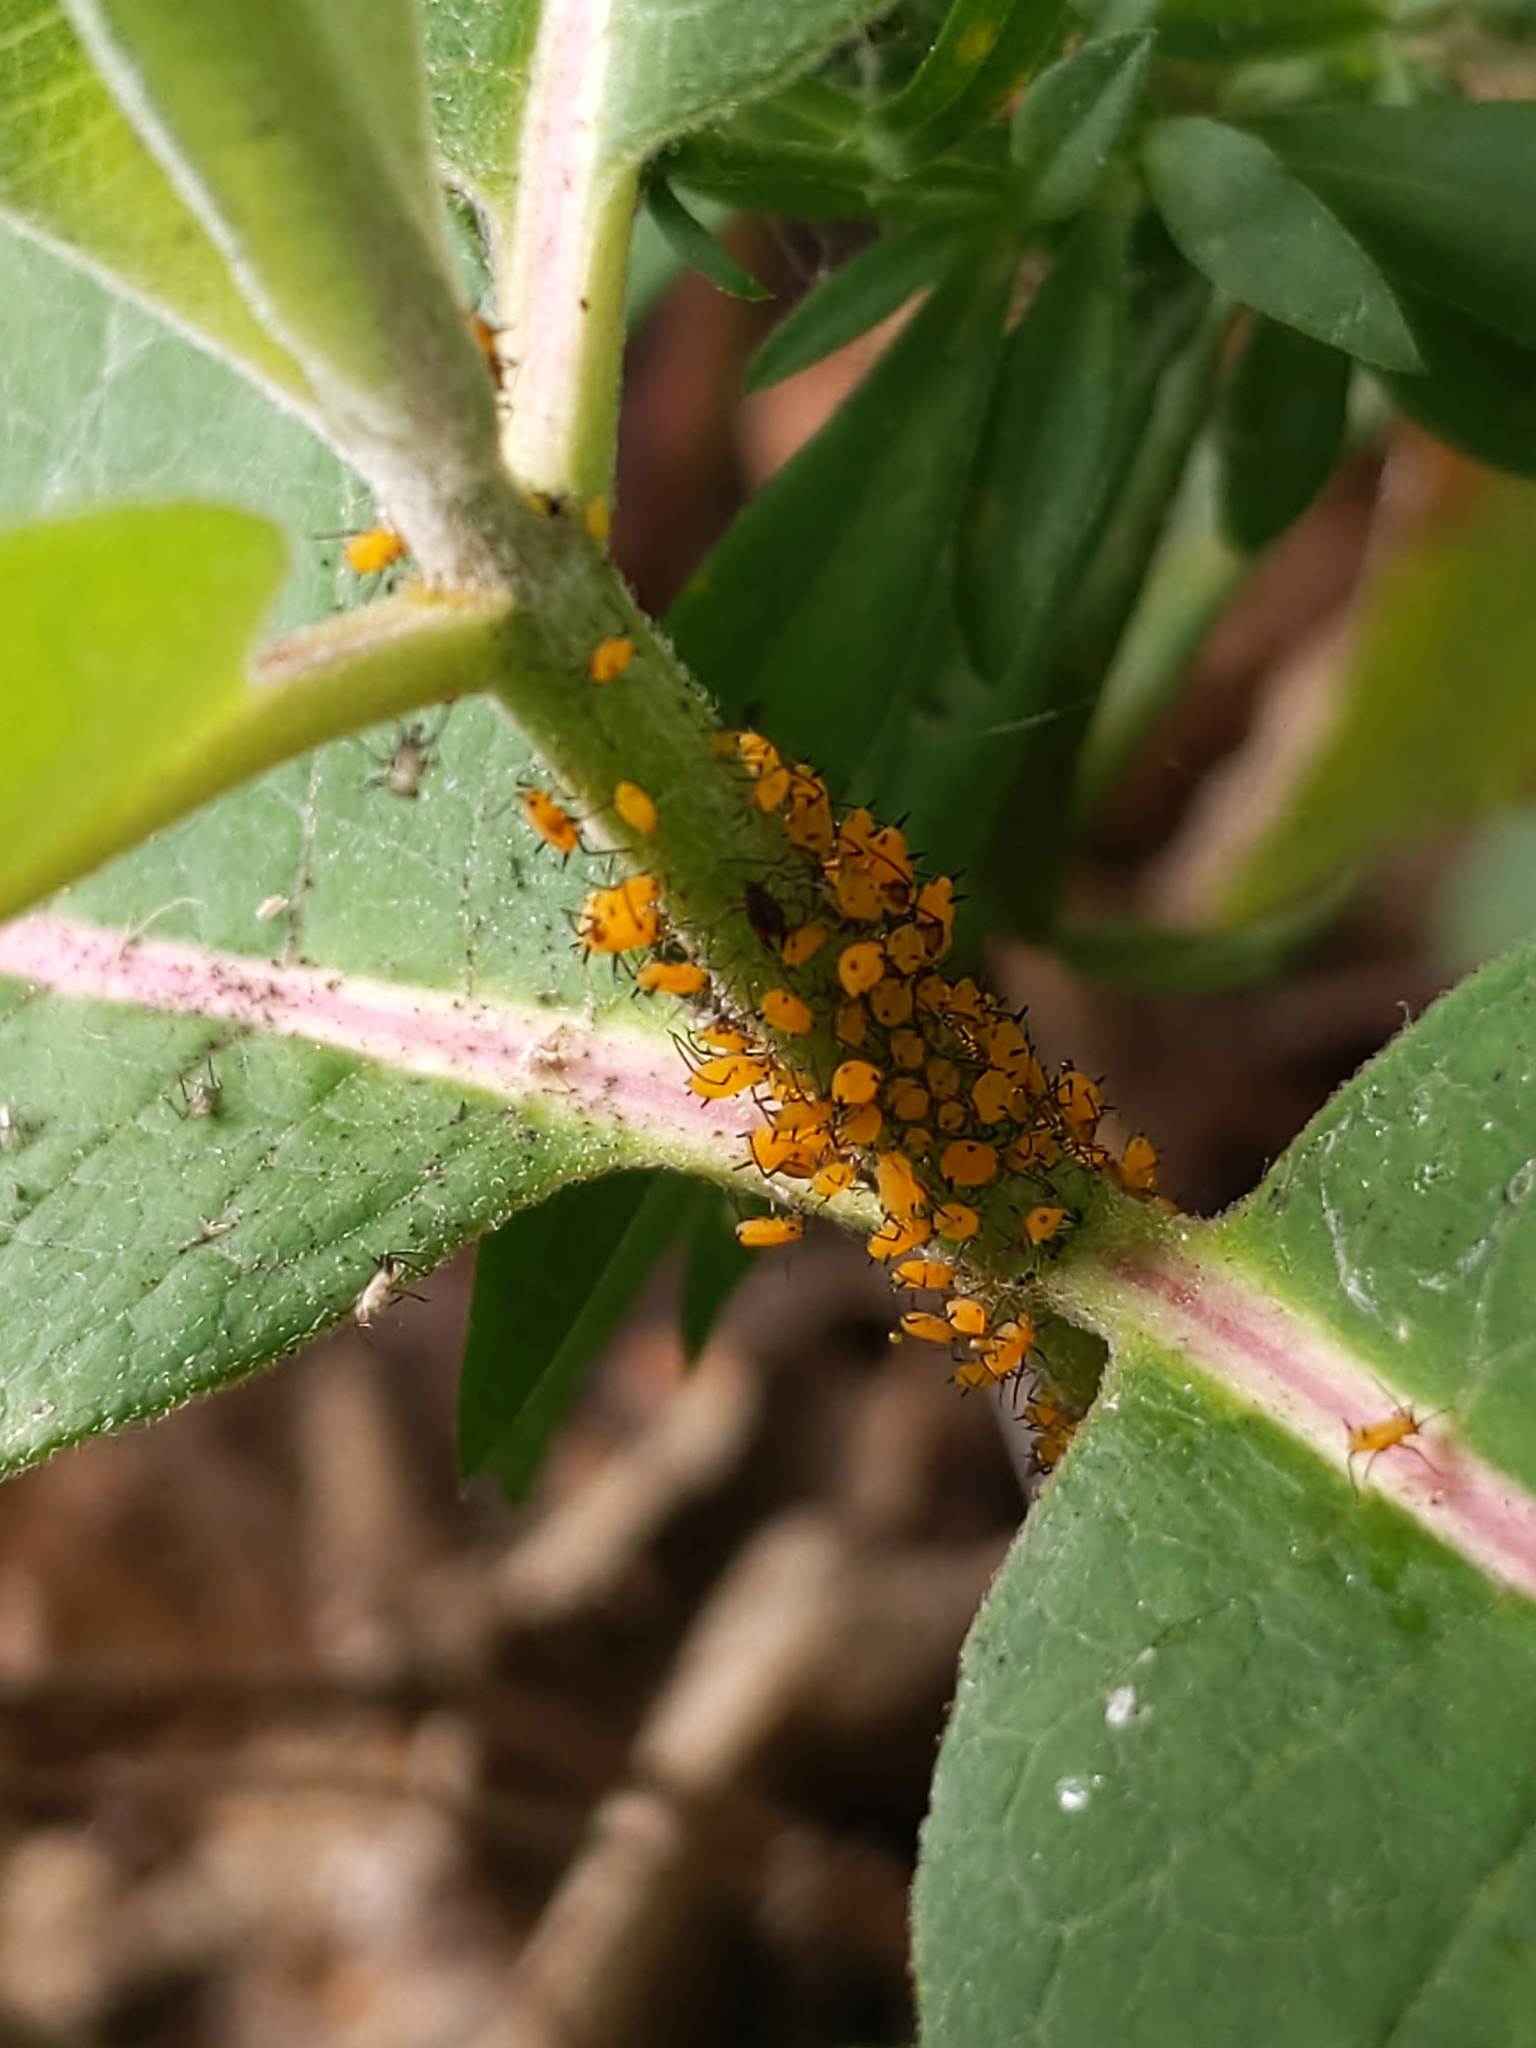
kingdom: Animalia
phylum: Arthropoda
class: Insecta
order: Hemiptera
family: Aphididae
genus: Aphis
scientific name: Aphis nerii
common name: Oleander aphid
